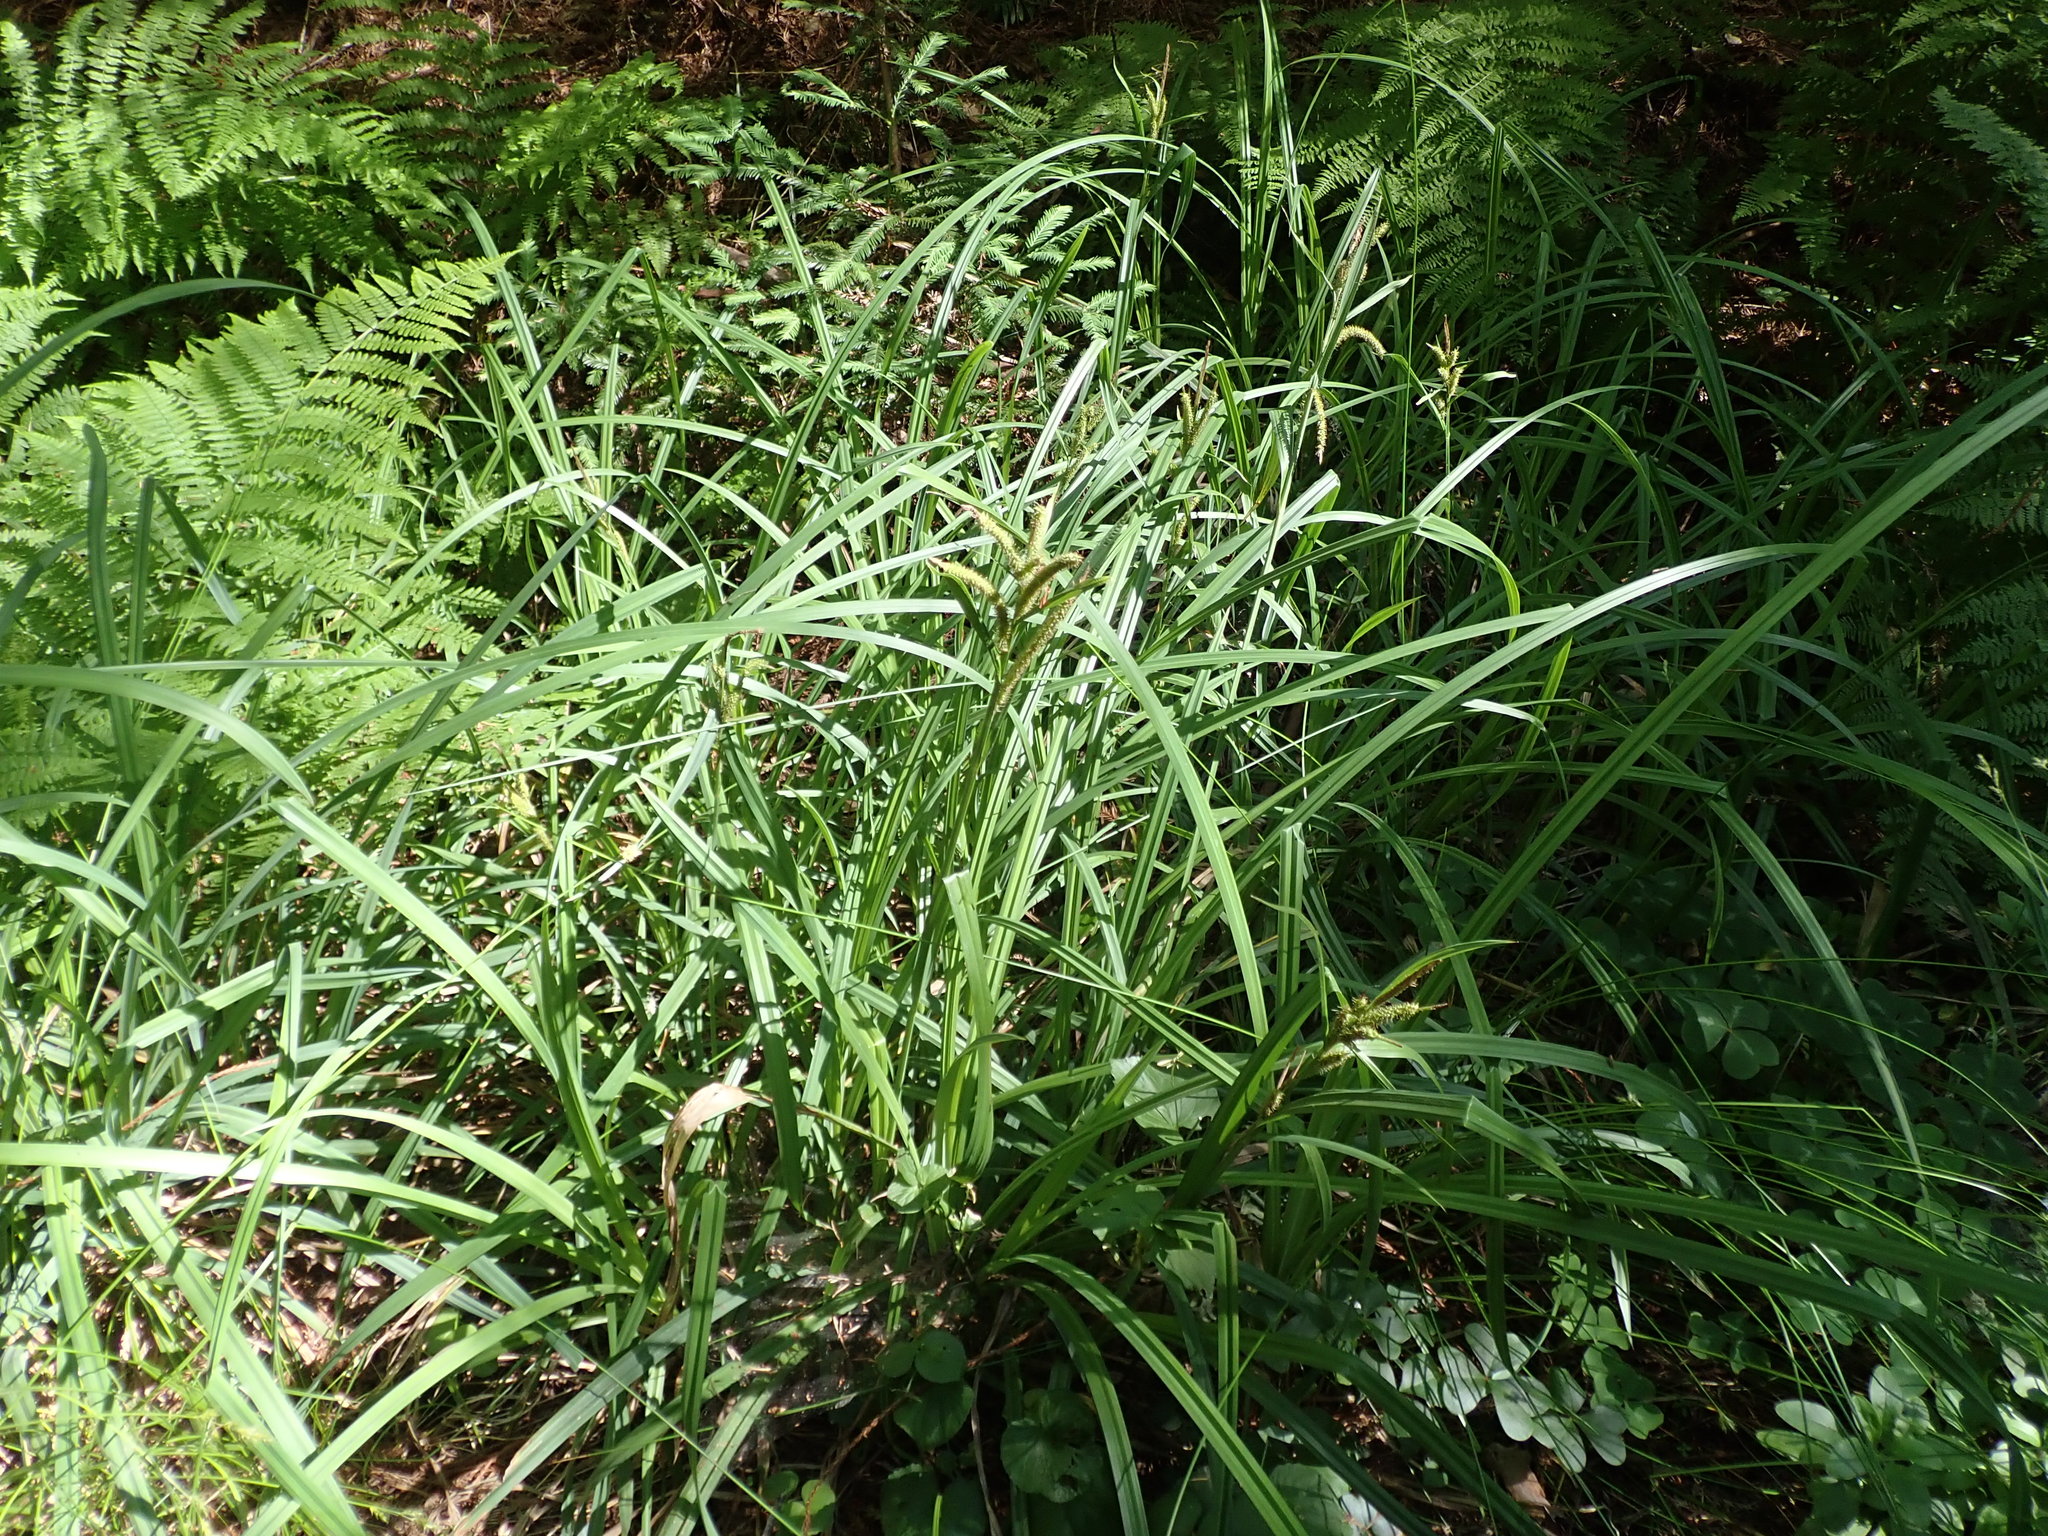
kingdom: Plantae
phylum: Tracheophyta
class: Liliopsida
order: Poales
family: Cyperaceae
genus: Carex
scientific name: Carex amplifolia
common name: Ample-leaved sedge
